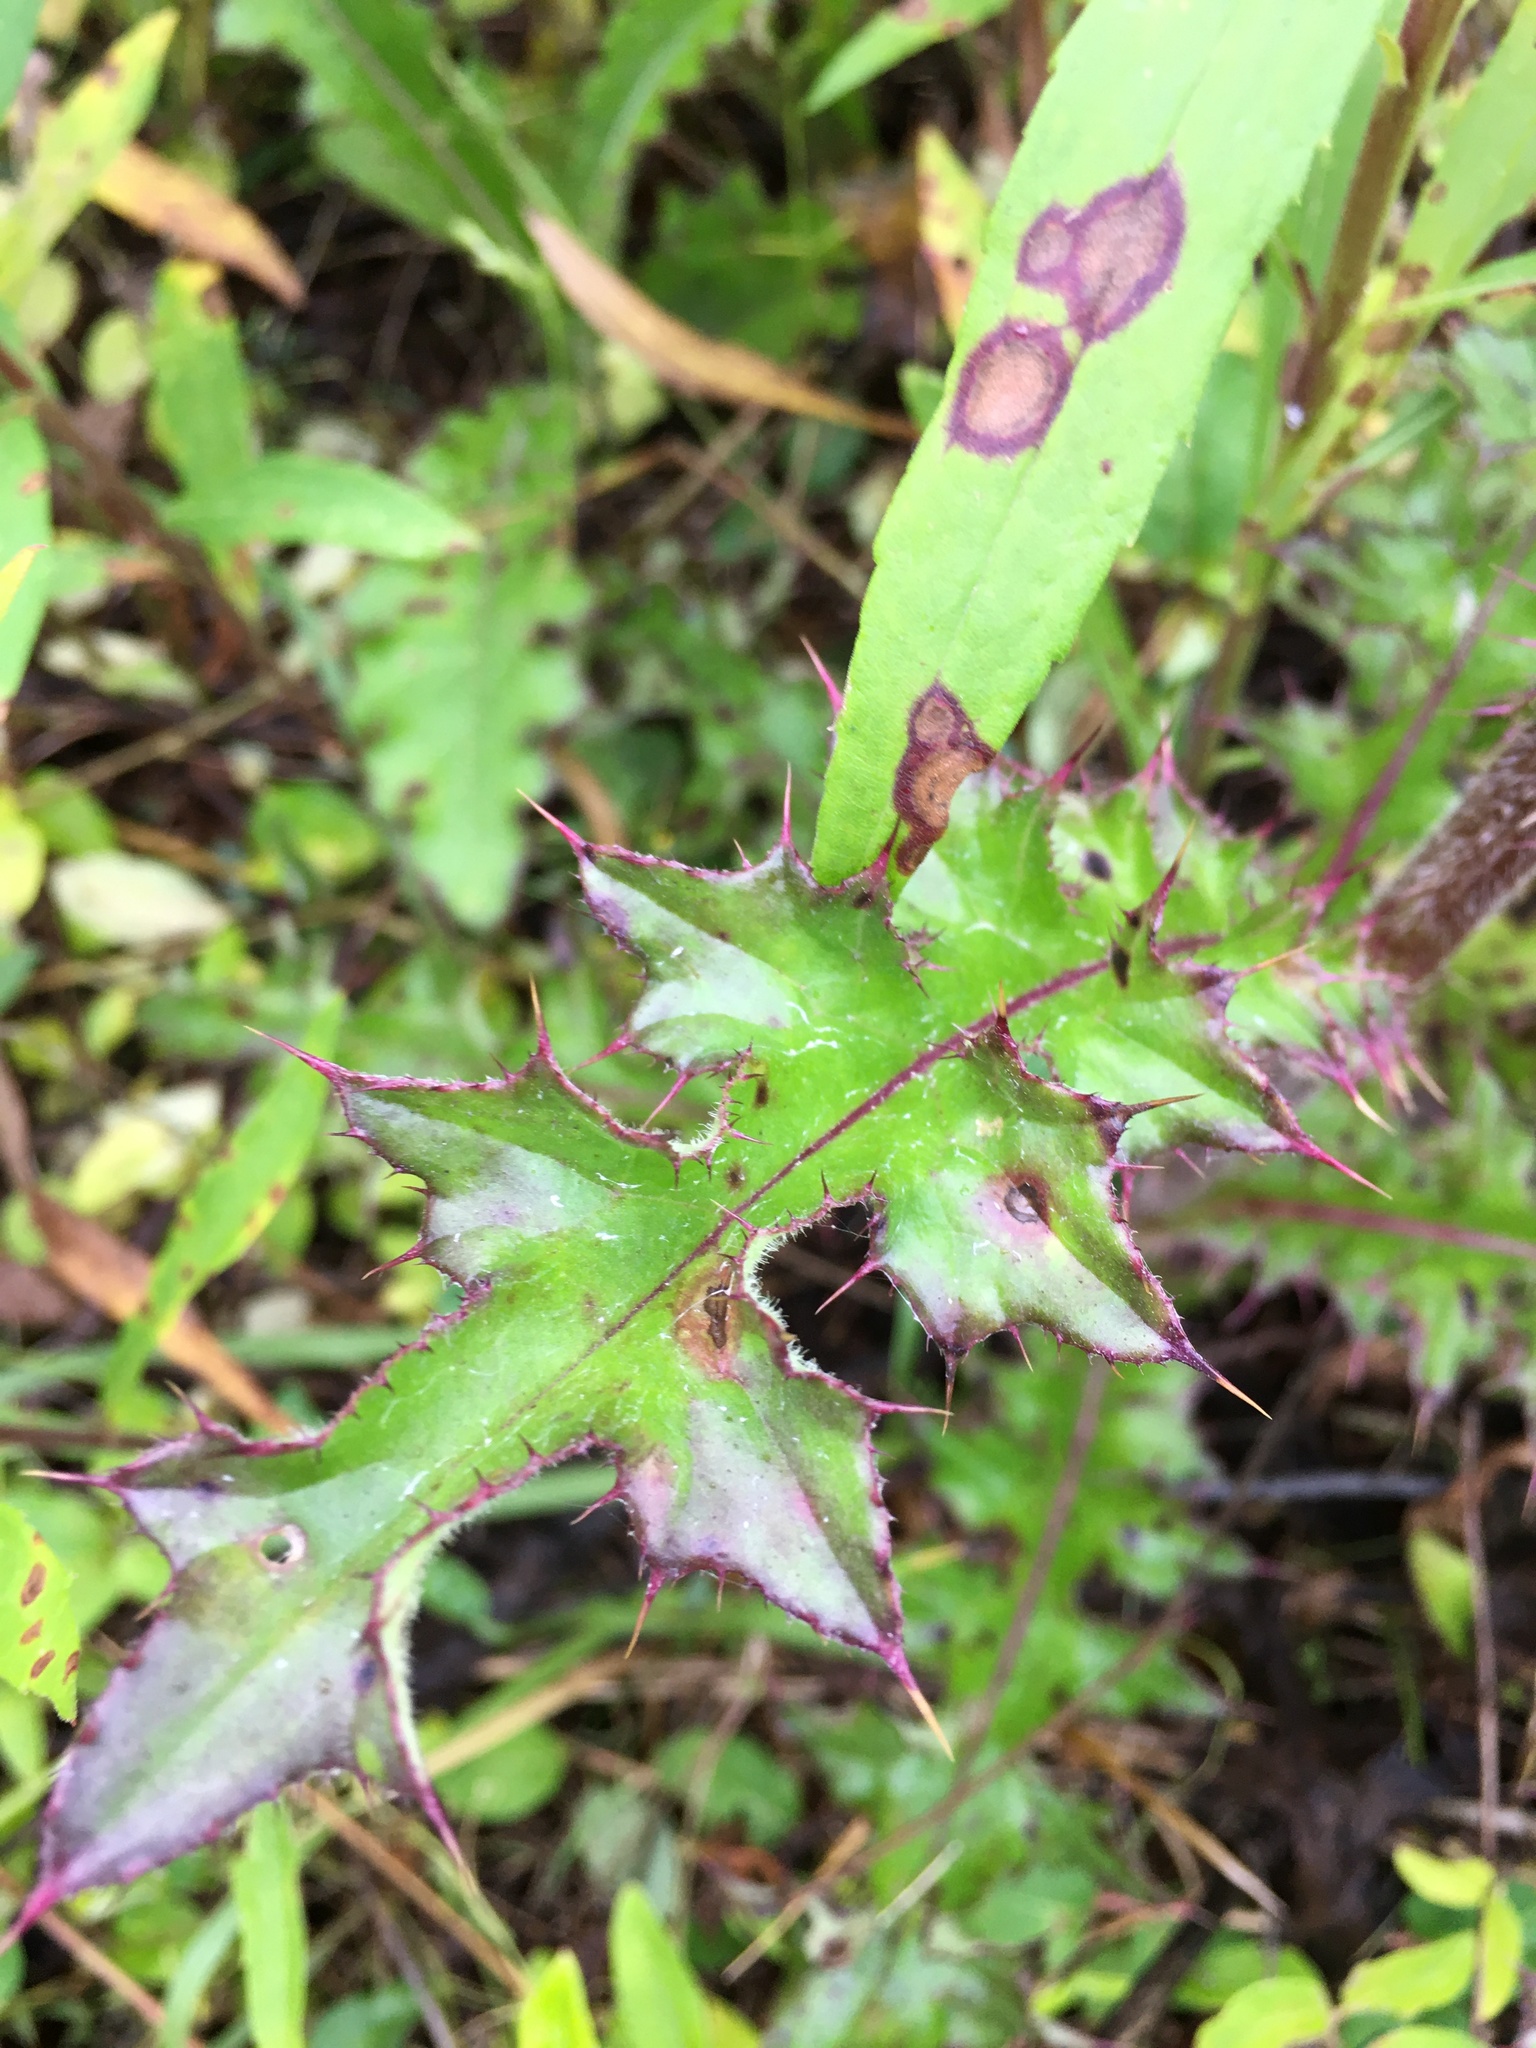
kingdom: Plantae
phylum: Tracheophyta
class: Magnoliopsida
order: Asterales
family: Asteraceae
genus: Cirsium
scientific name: Cirsium horridulum
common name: Bristly thistle
